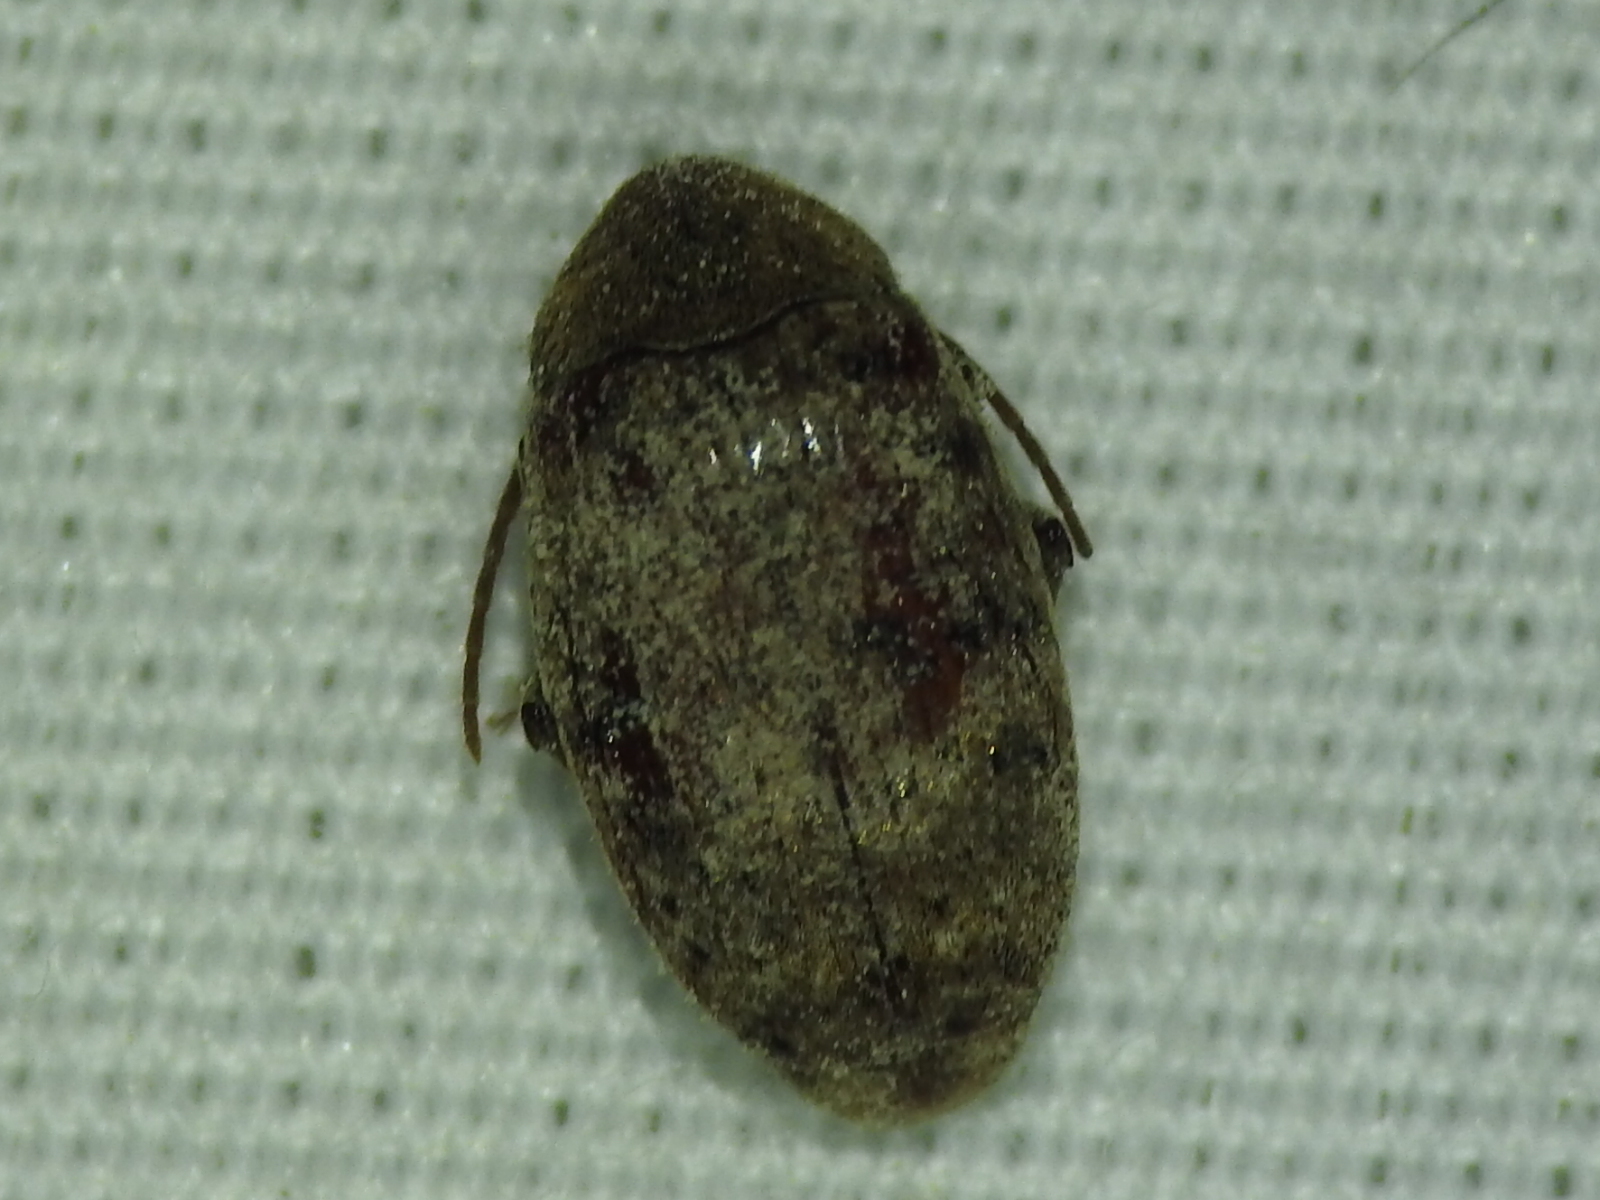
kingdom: Animalia
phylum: Arthropoda
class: Insecta
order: Coleoptera
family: Chrysomelidae
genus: Amblycerus
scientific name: Amblycerus robiniae
